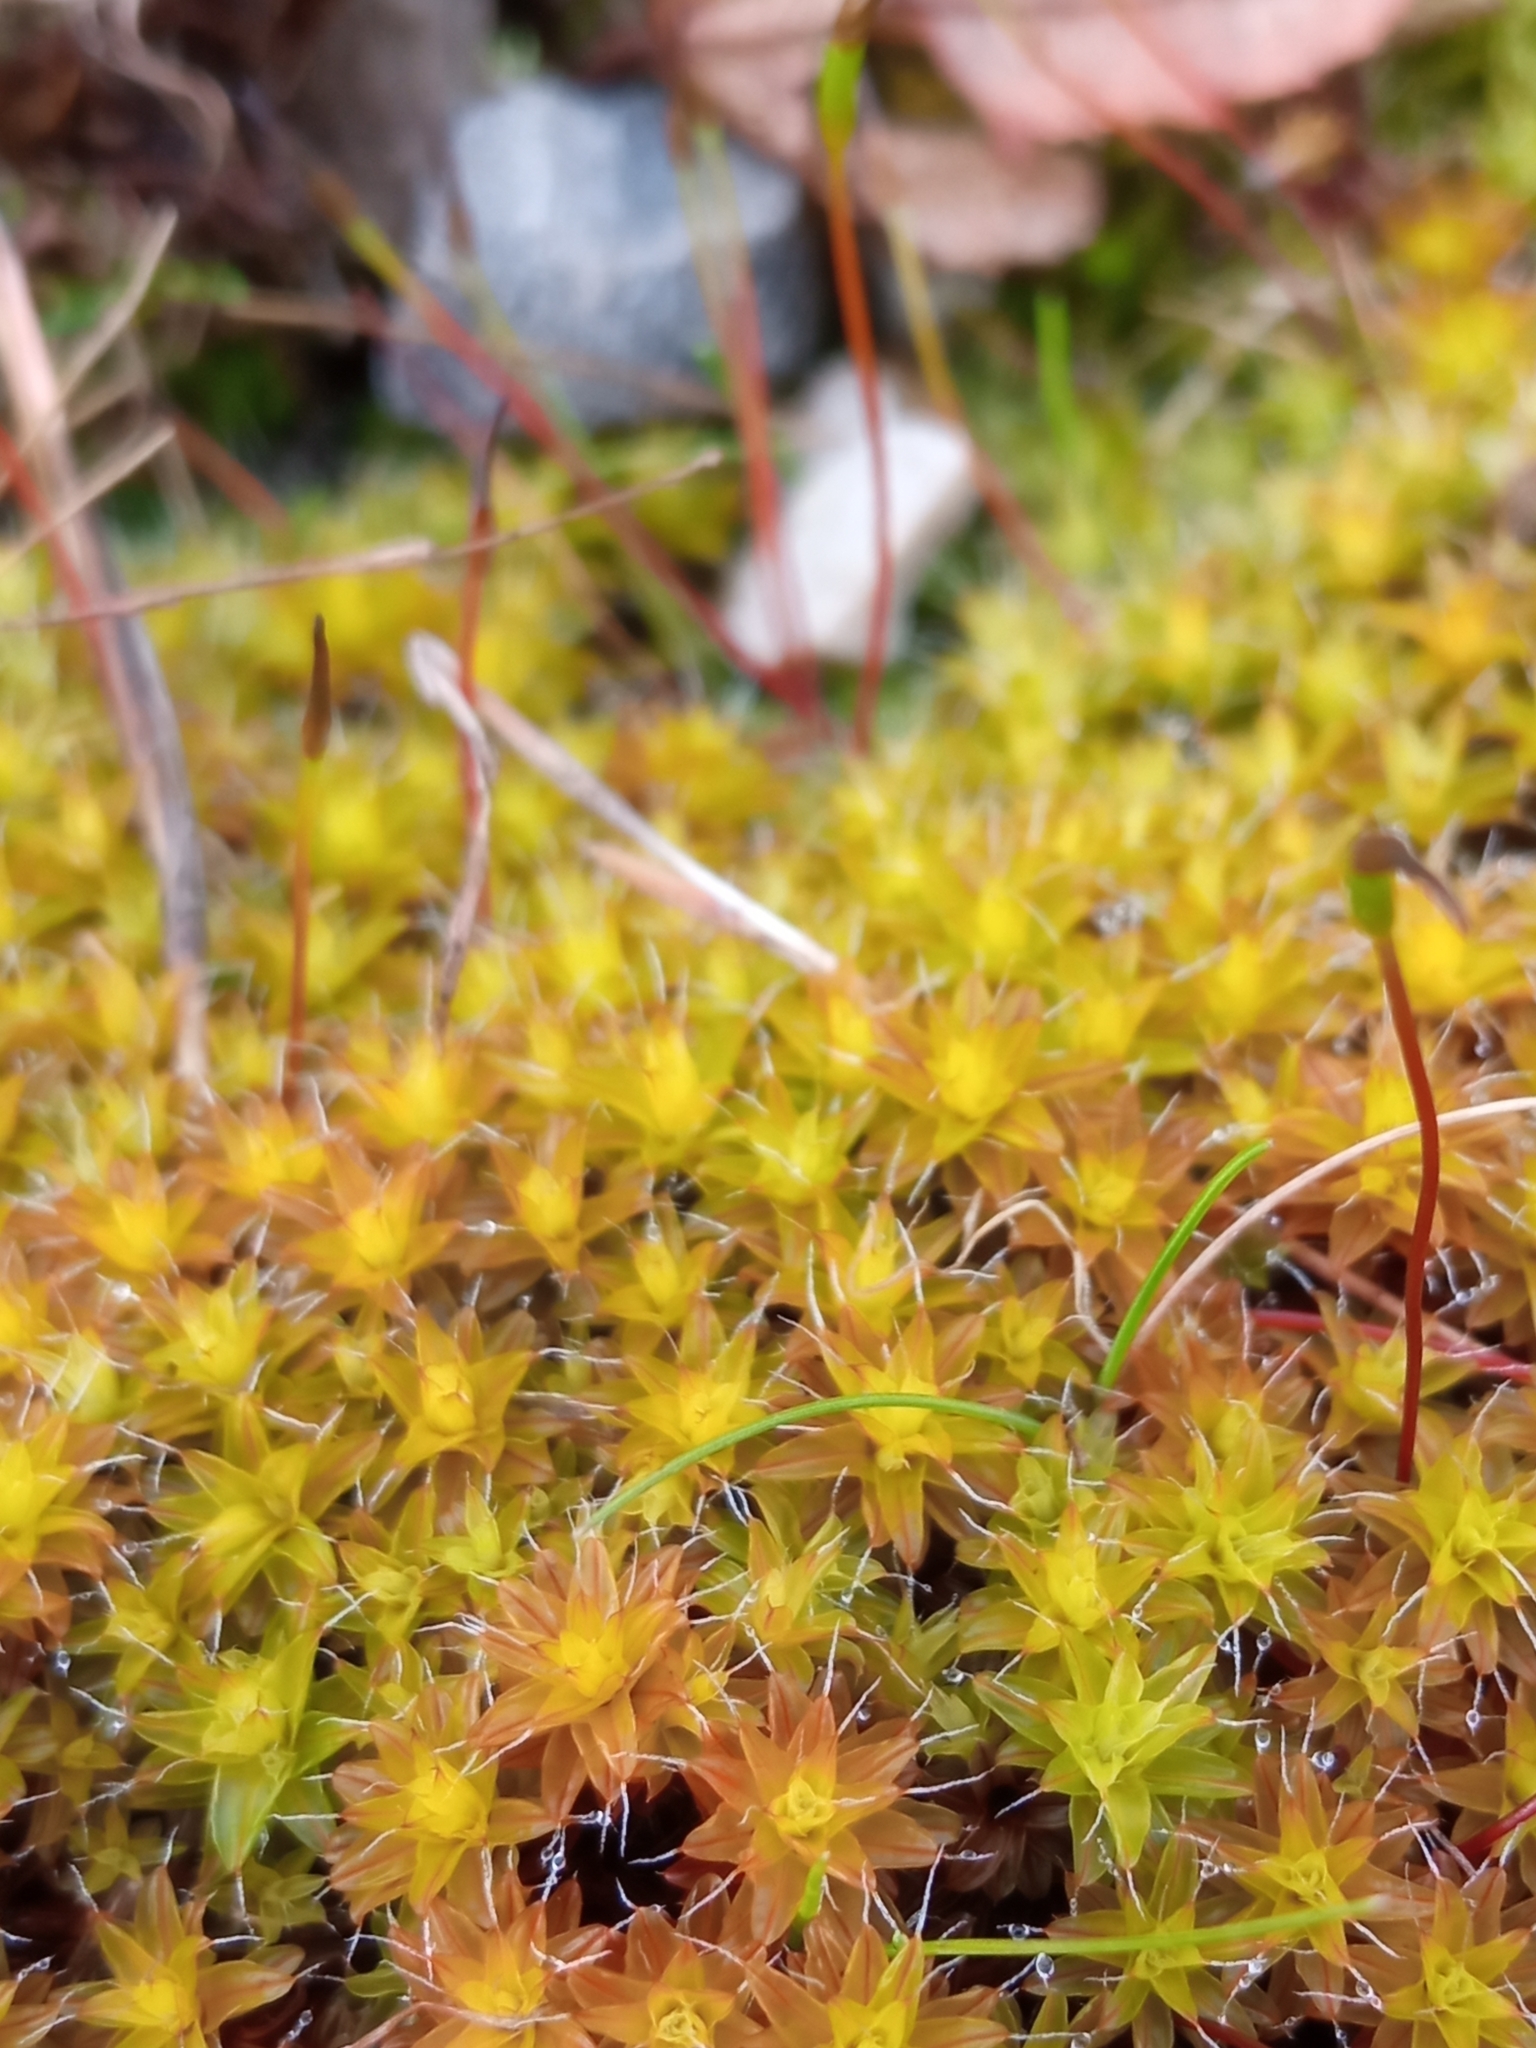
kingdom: Plantae
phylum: Bryophyta
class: Bryopsida
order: Pottiales
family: Pottiaceae
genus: Syntrichia
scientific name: Syntrichia ruralis
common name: Sidewalk screw moss
